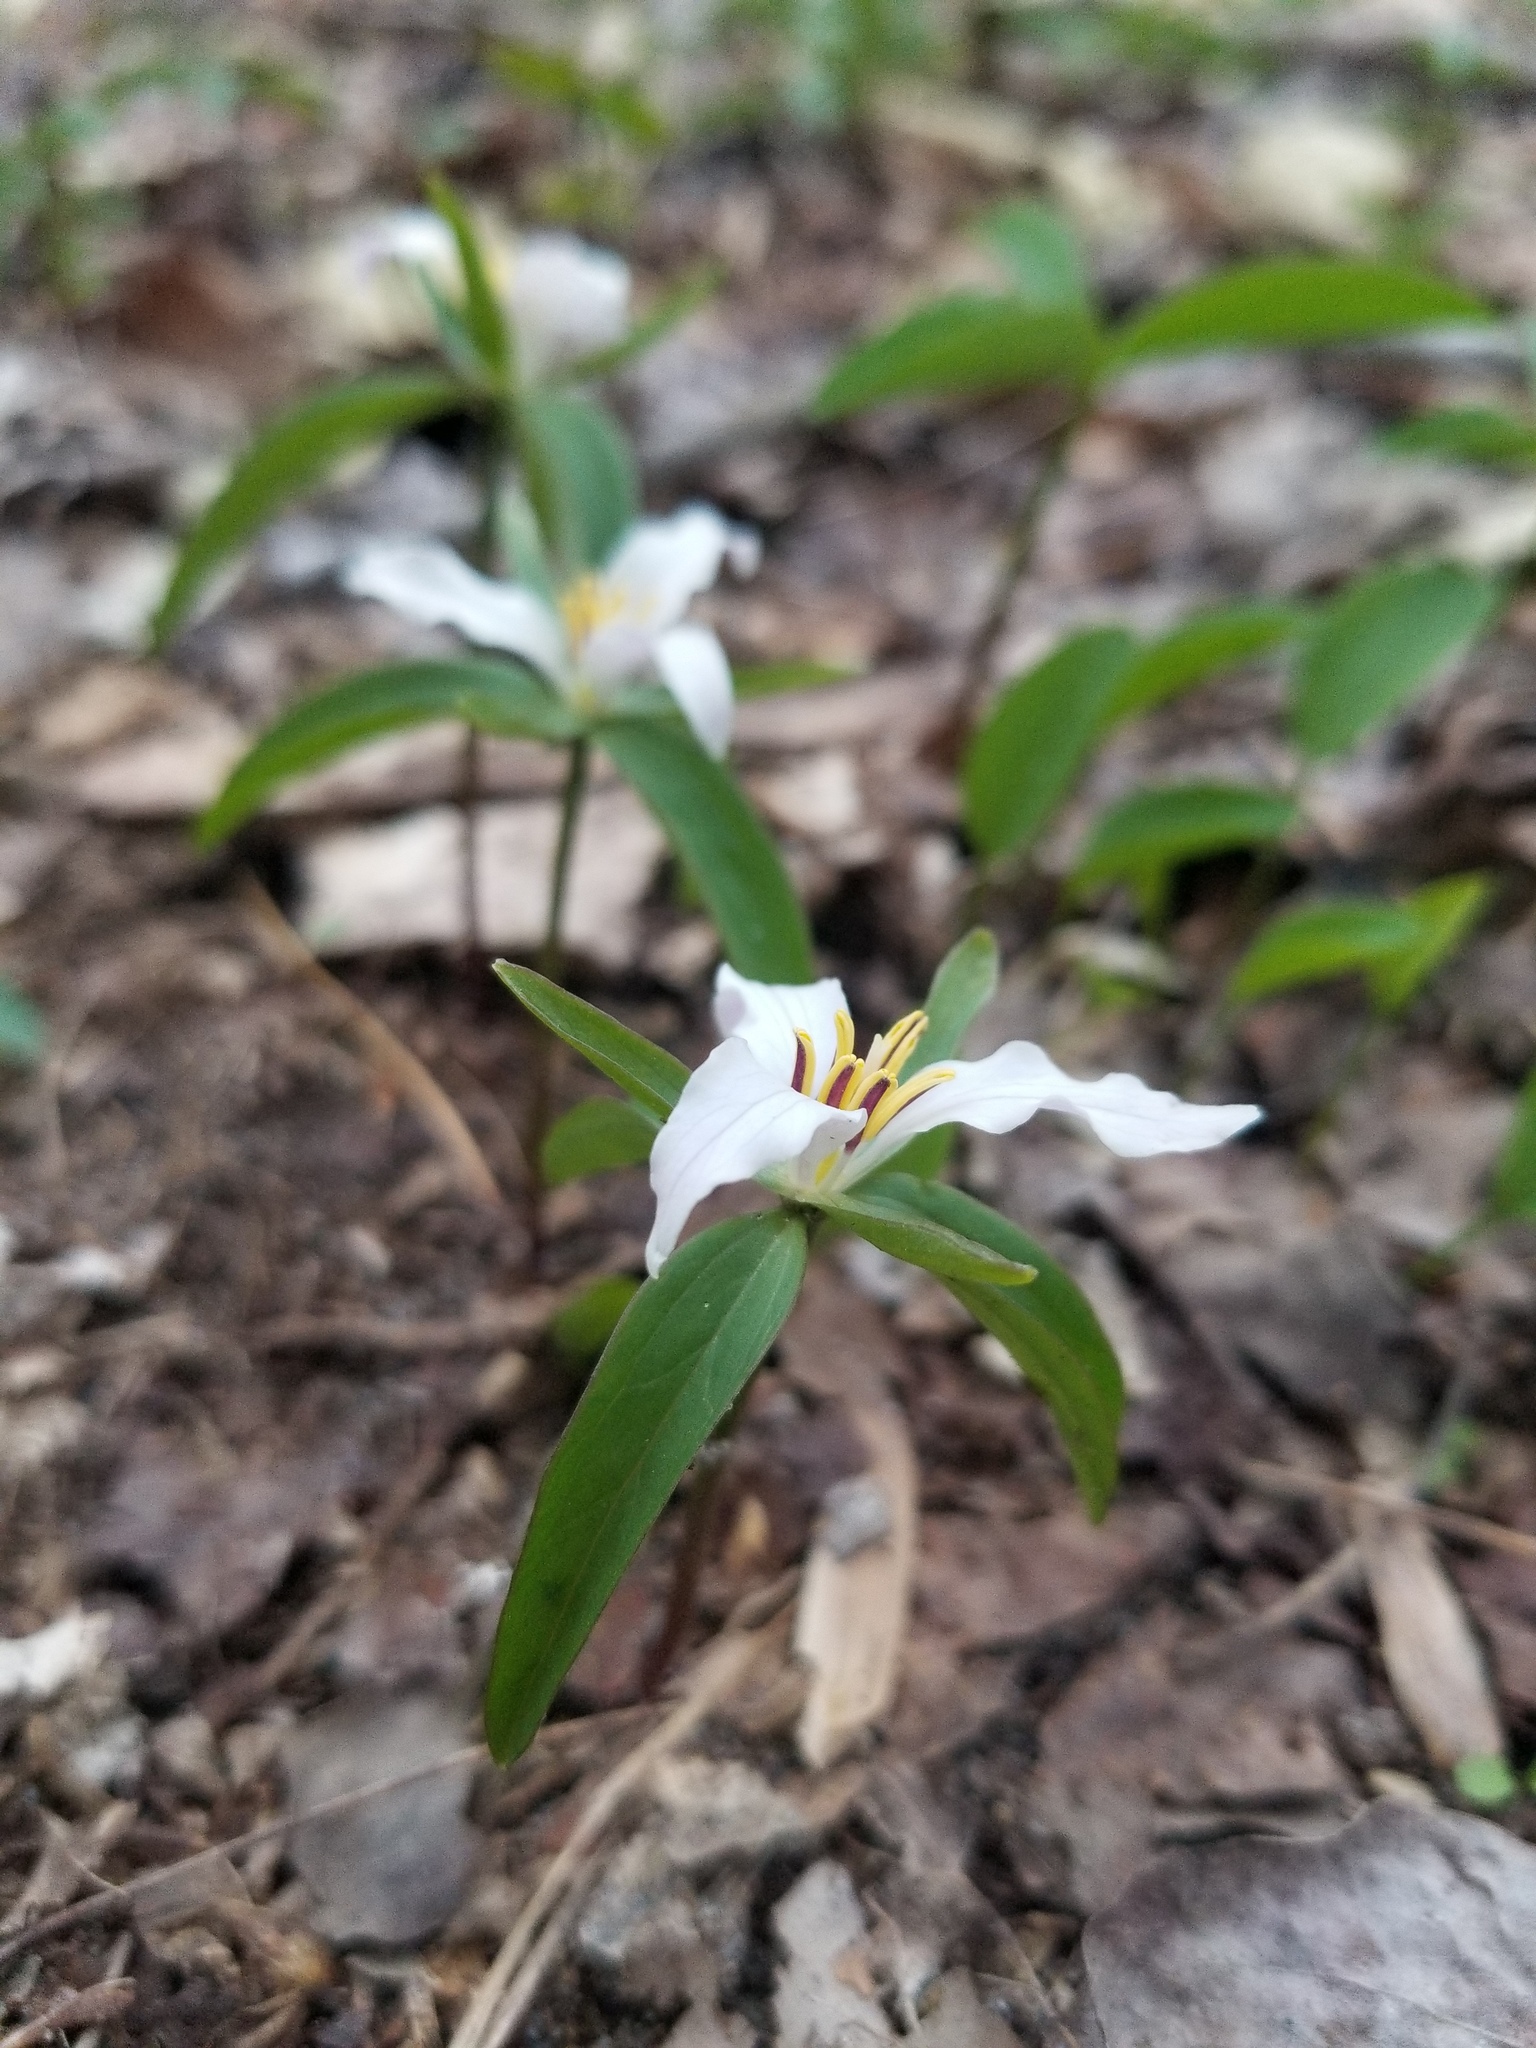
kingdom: Plantae
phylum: Tracheophyta
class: Liliopsida
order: Liliales
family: Melanthiaceae
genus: Trillium
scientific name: Trillium pusillum
